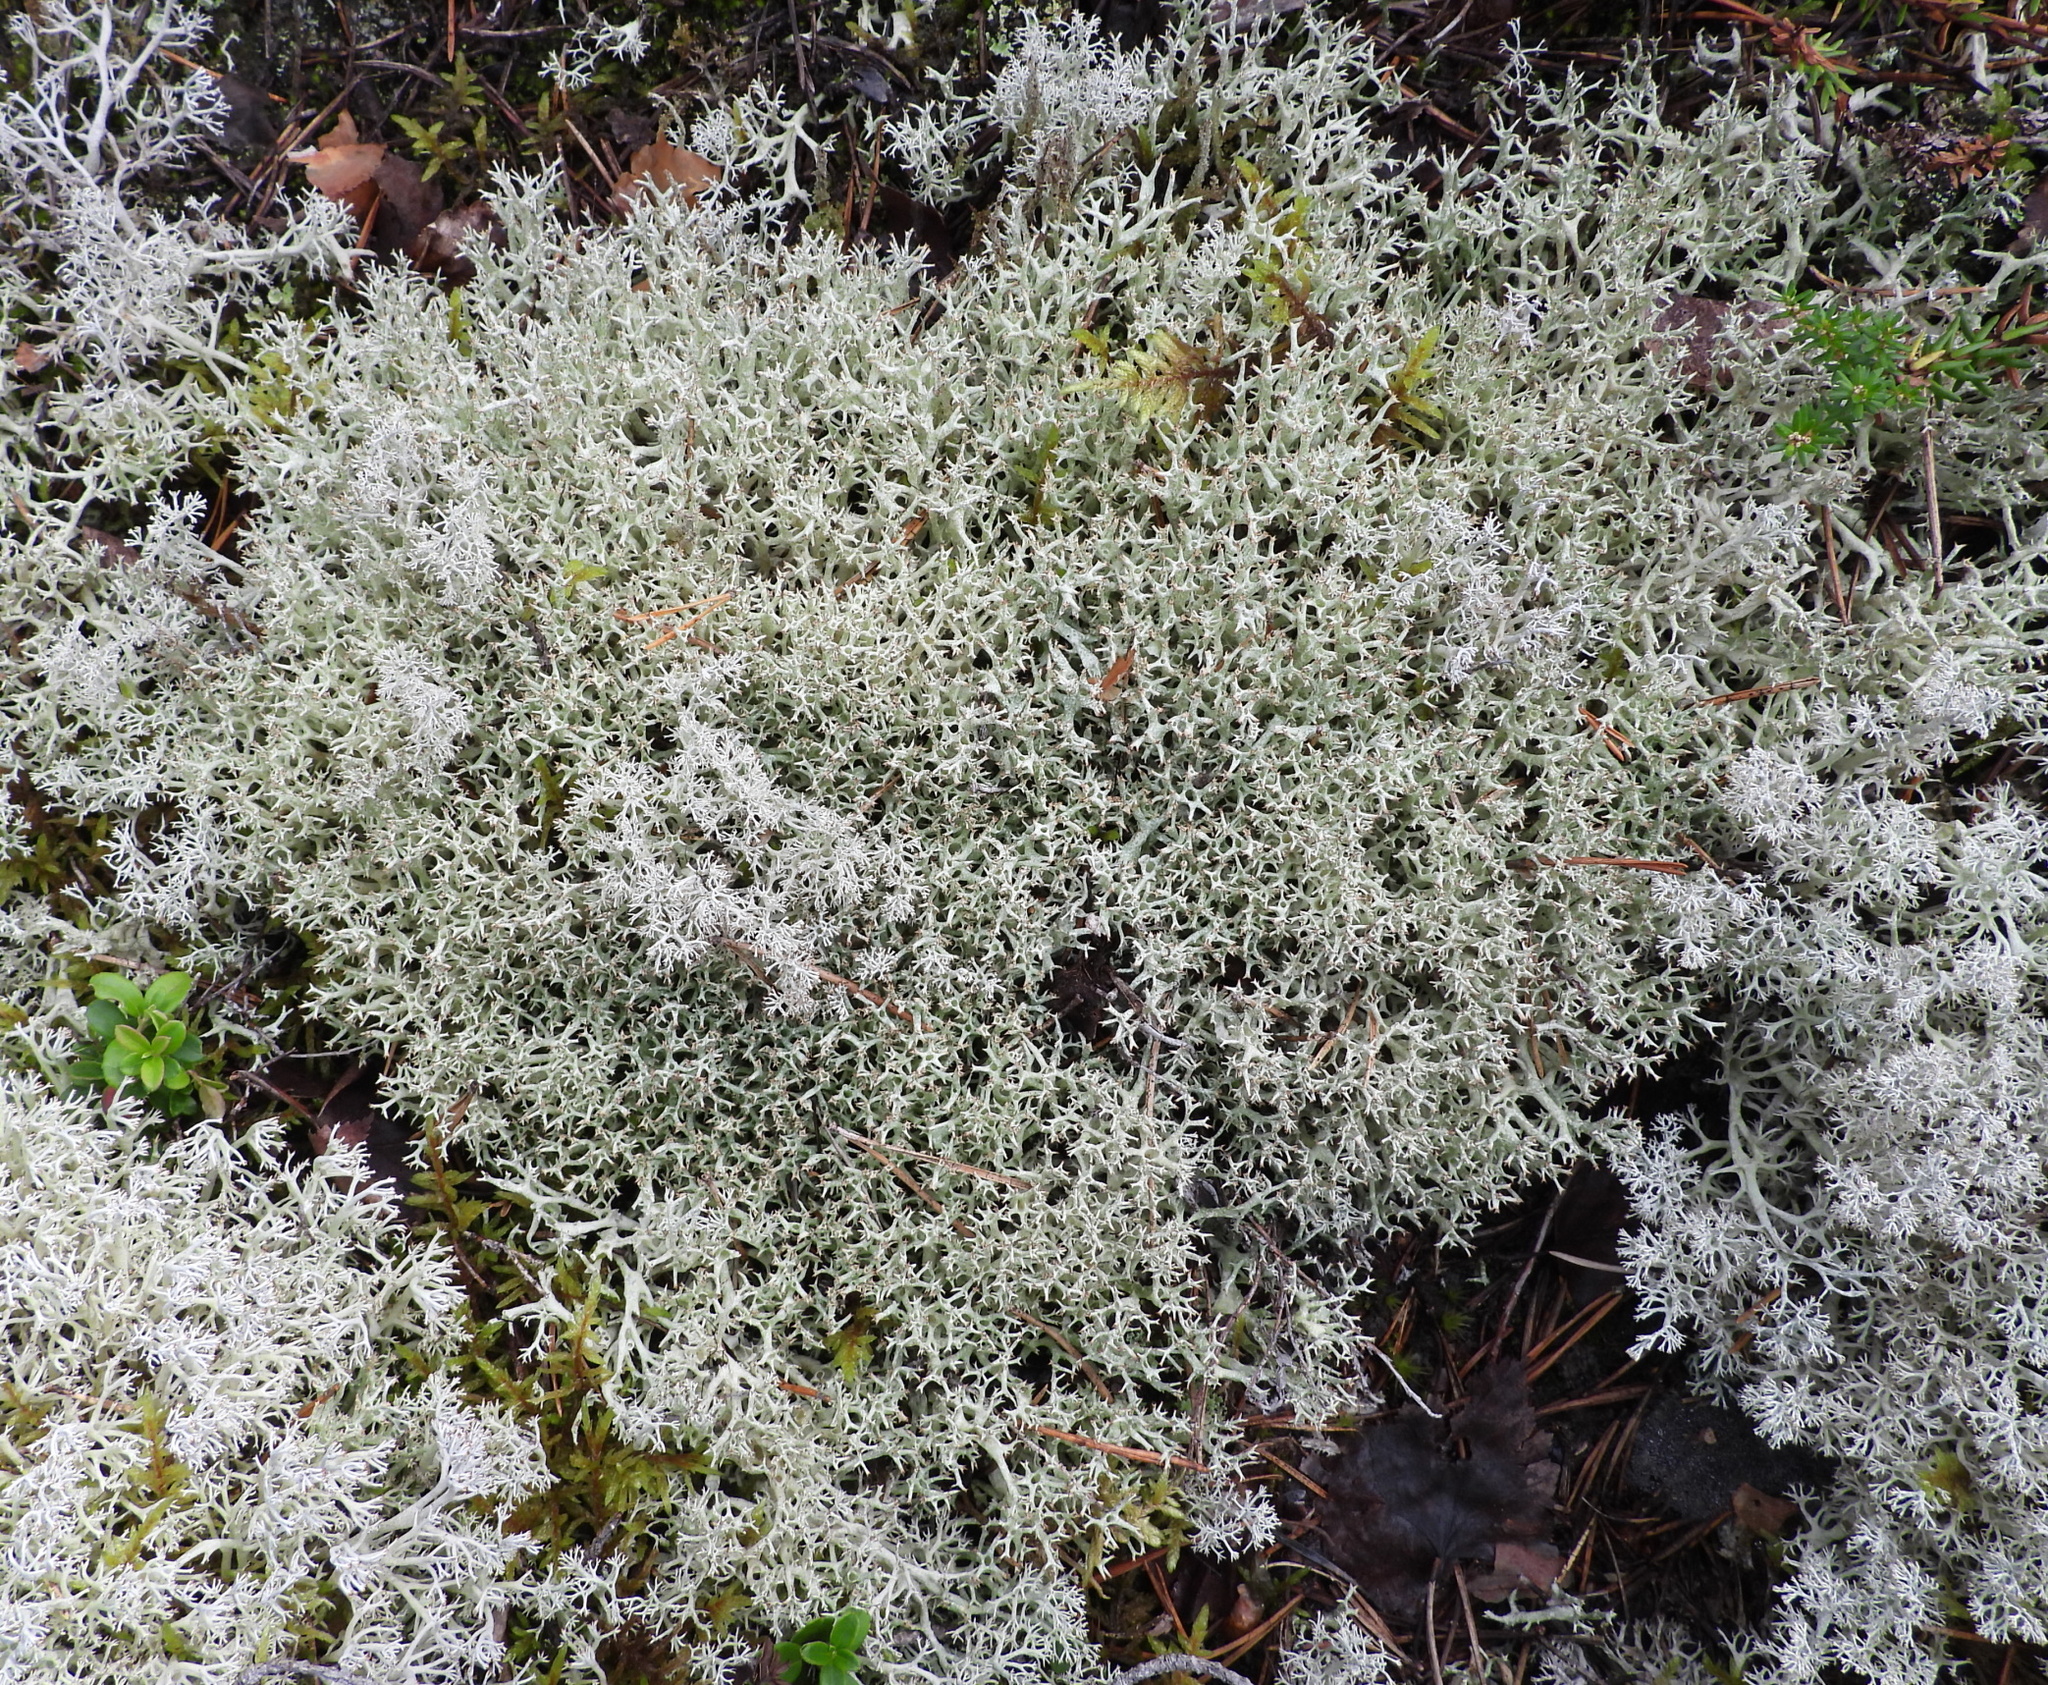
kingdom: Fungi
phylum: Ascomycota
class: Lecanoromycetes
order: Lecanorales
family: Cladoniaceae
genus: Cladonia
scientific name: Cladonia uncialis
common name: Thorn lichen
